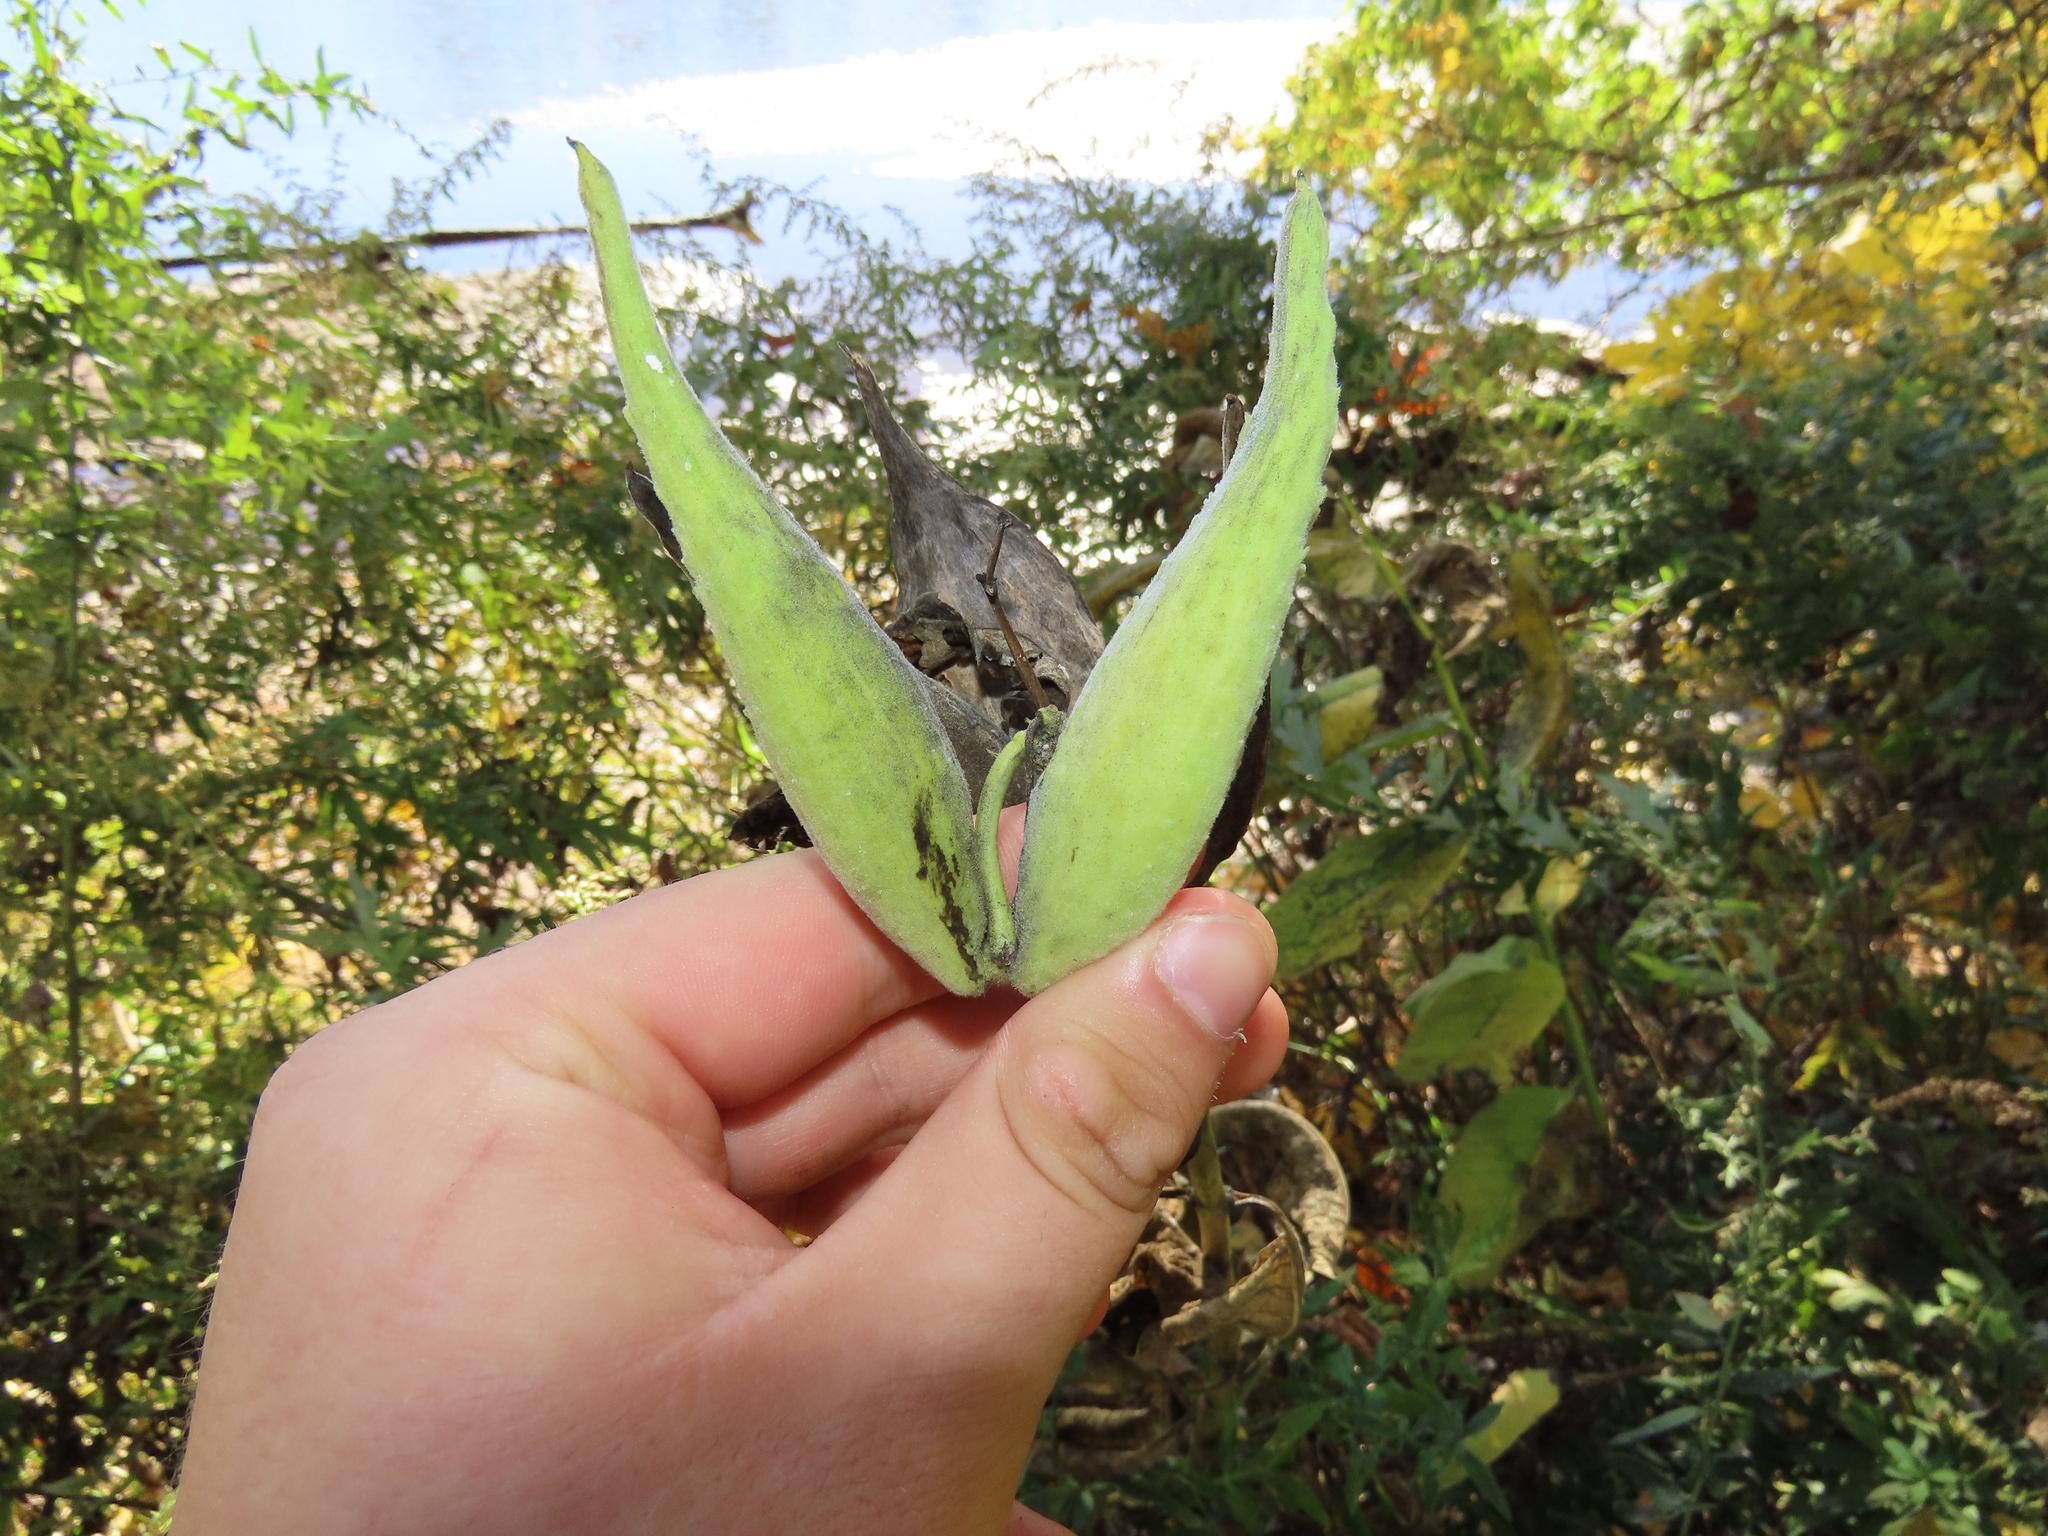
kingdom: Plantae
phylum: Tracheophyta
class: Magnoliopsida
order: Gentianales
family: Apocynaceae
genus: Asclepias
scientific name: Asclepias syriaca
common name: Common milkweed
